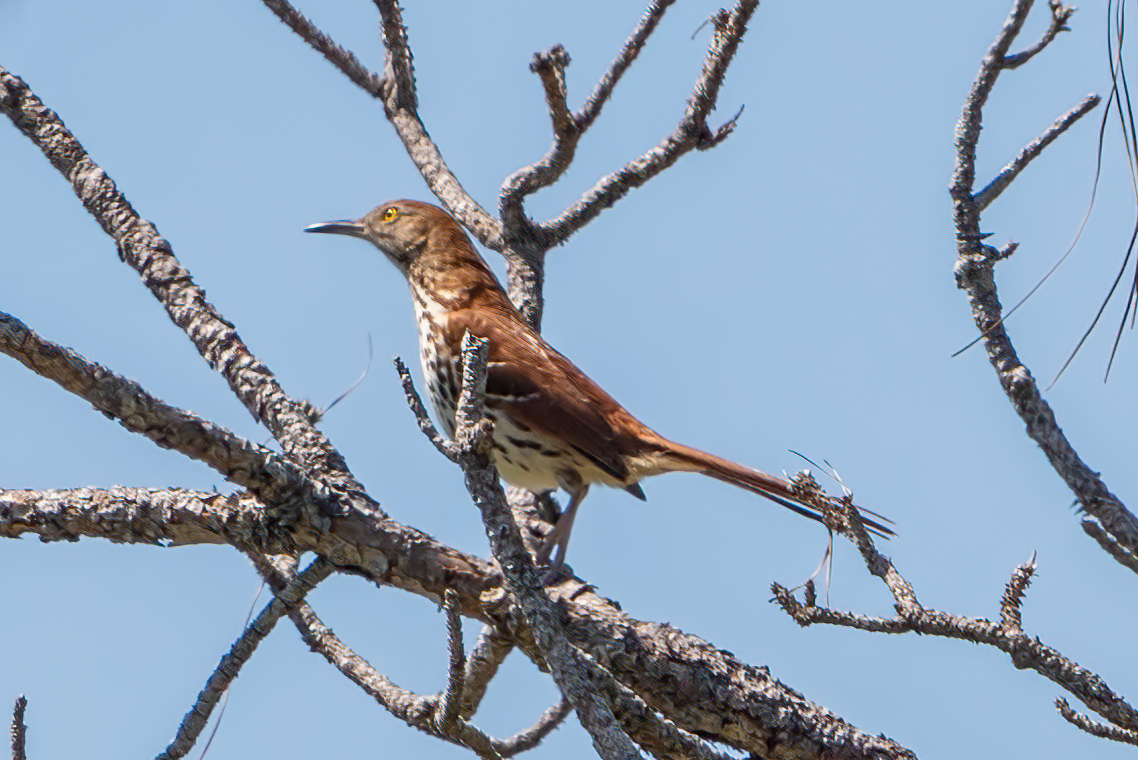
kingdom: Animalia
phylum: Chordata
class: Aves
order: Passeriformes
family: Mimidae
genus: Toxostoma
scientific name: Toxostoma rufum
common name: Brown thrasher
